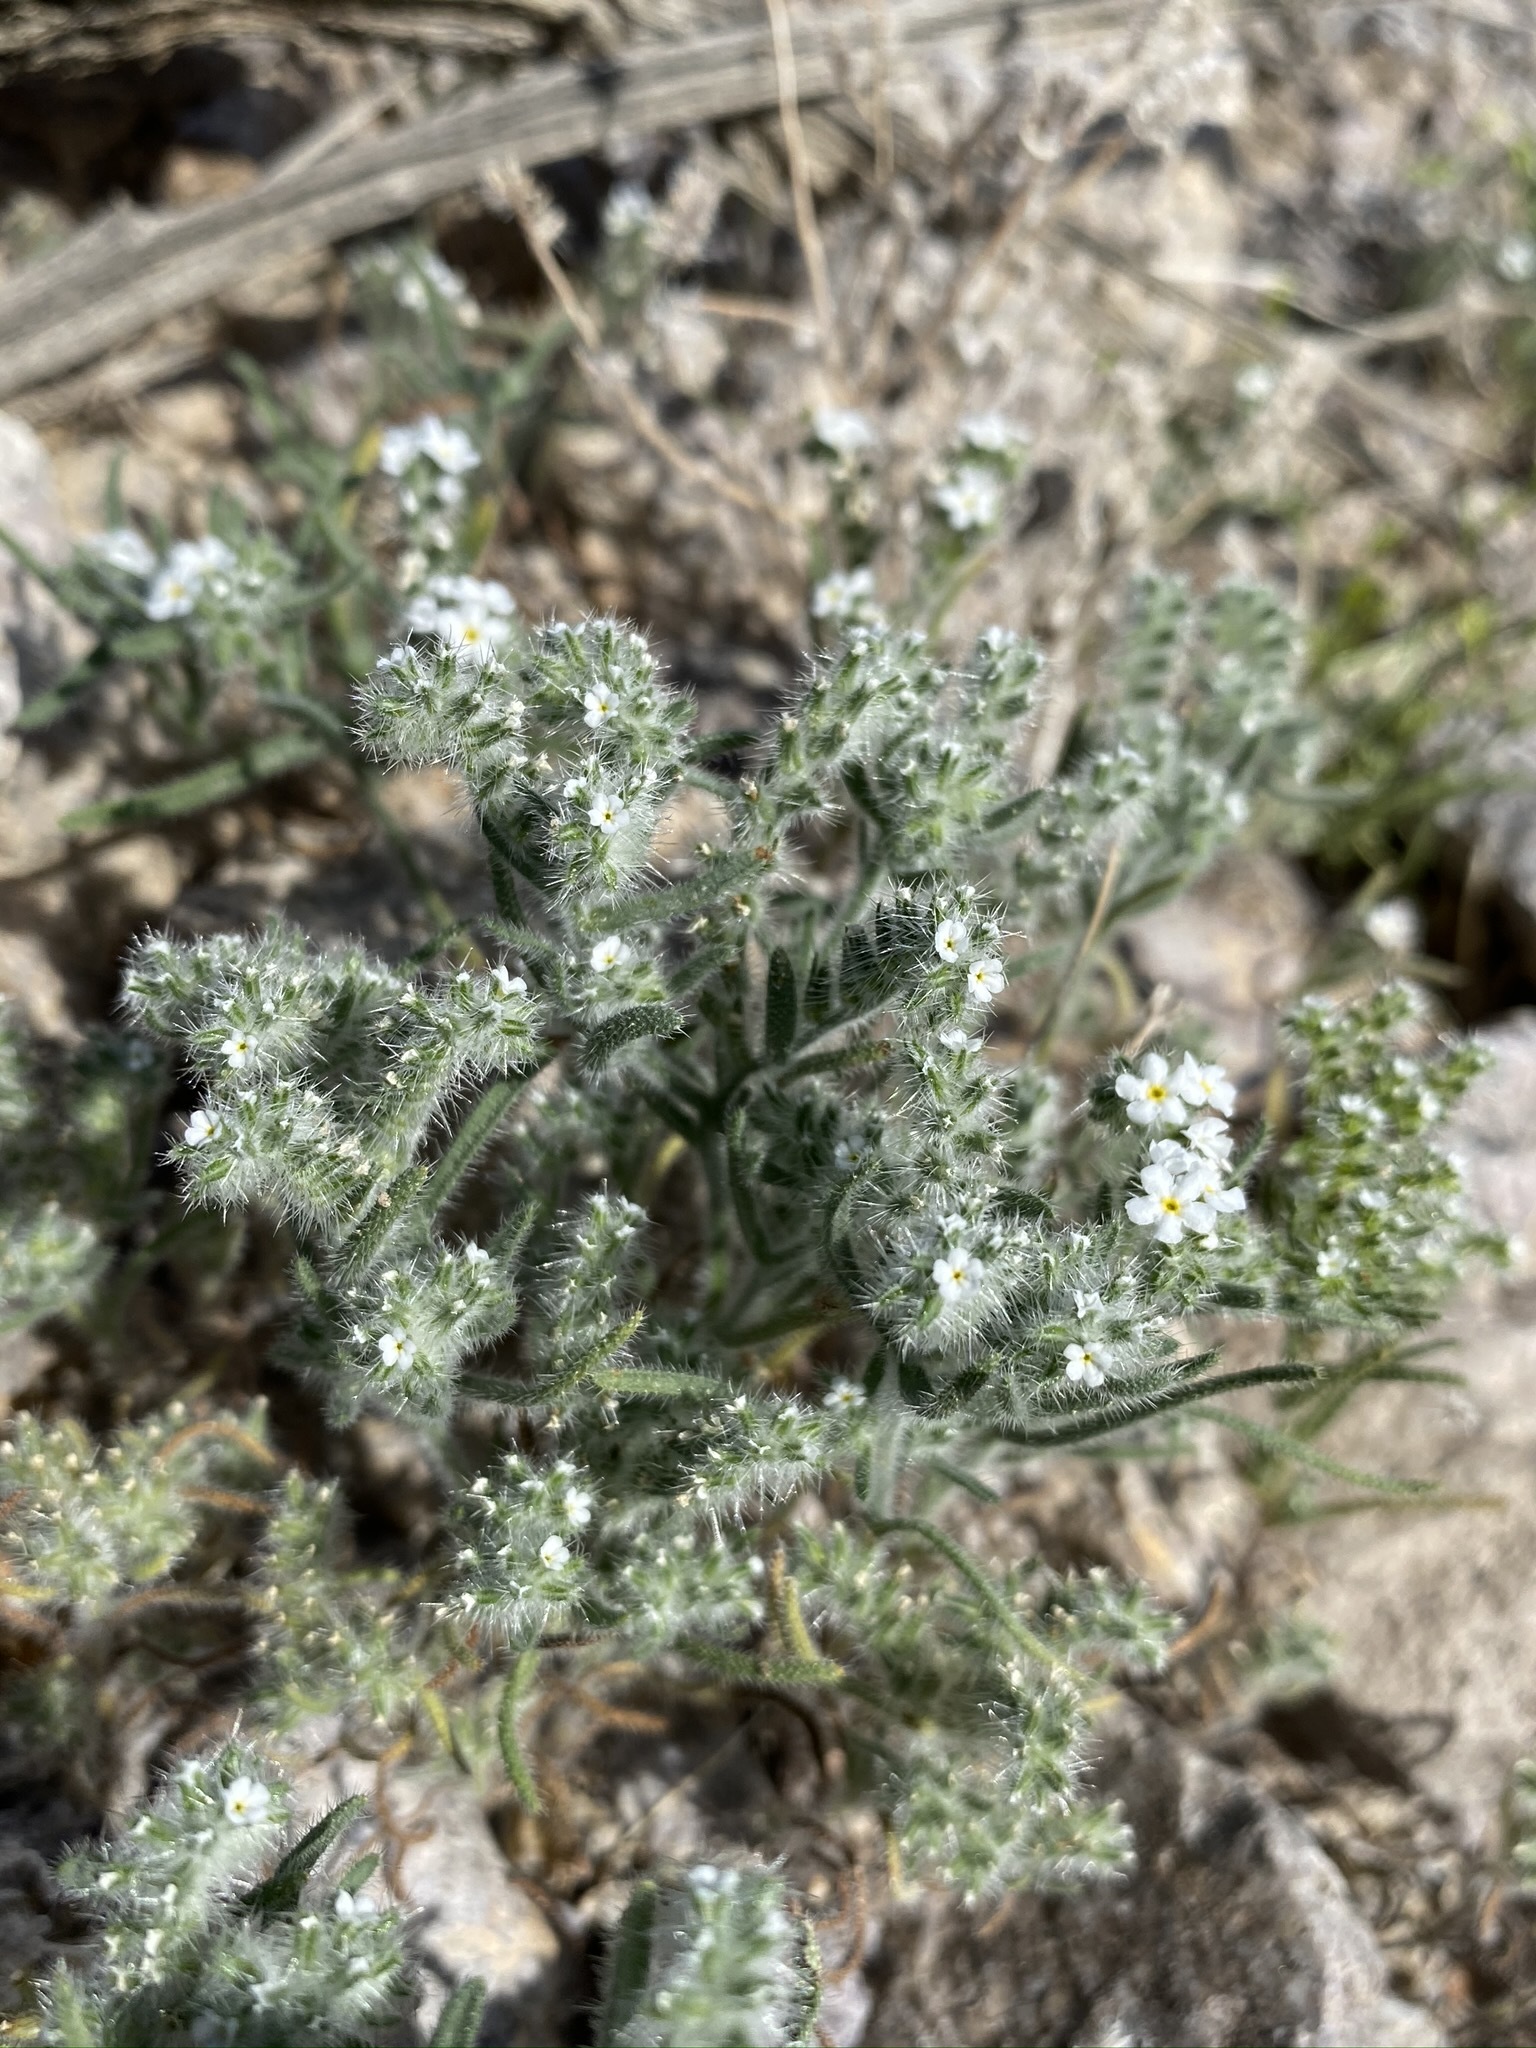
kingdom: Plantae
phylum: Tracheophyta
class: Magnoliopsida
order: Boraginales
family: Boraginaceae
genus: Johnstonella
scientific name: Johnstonella angustifolia
